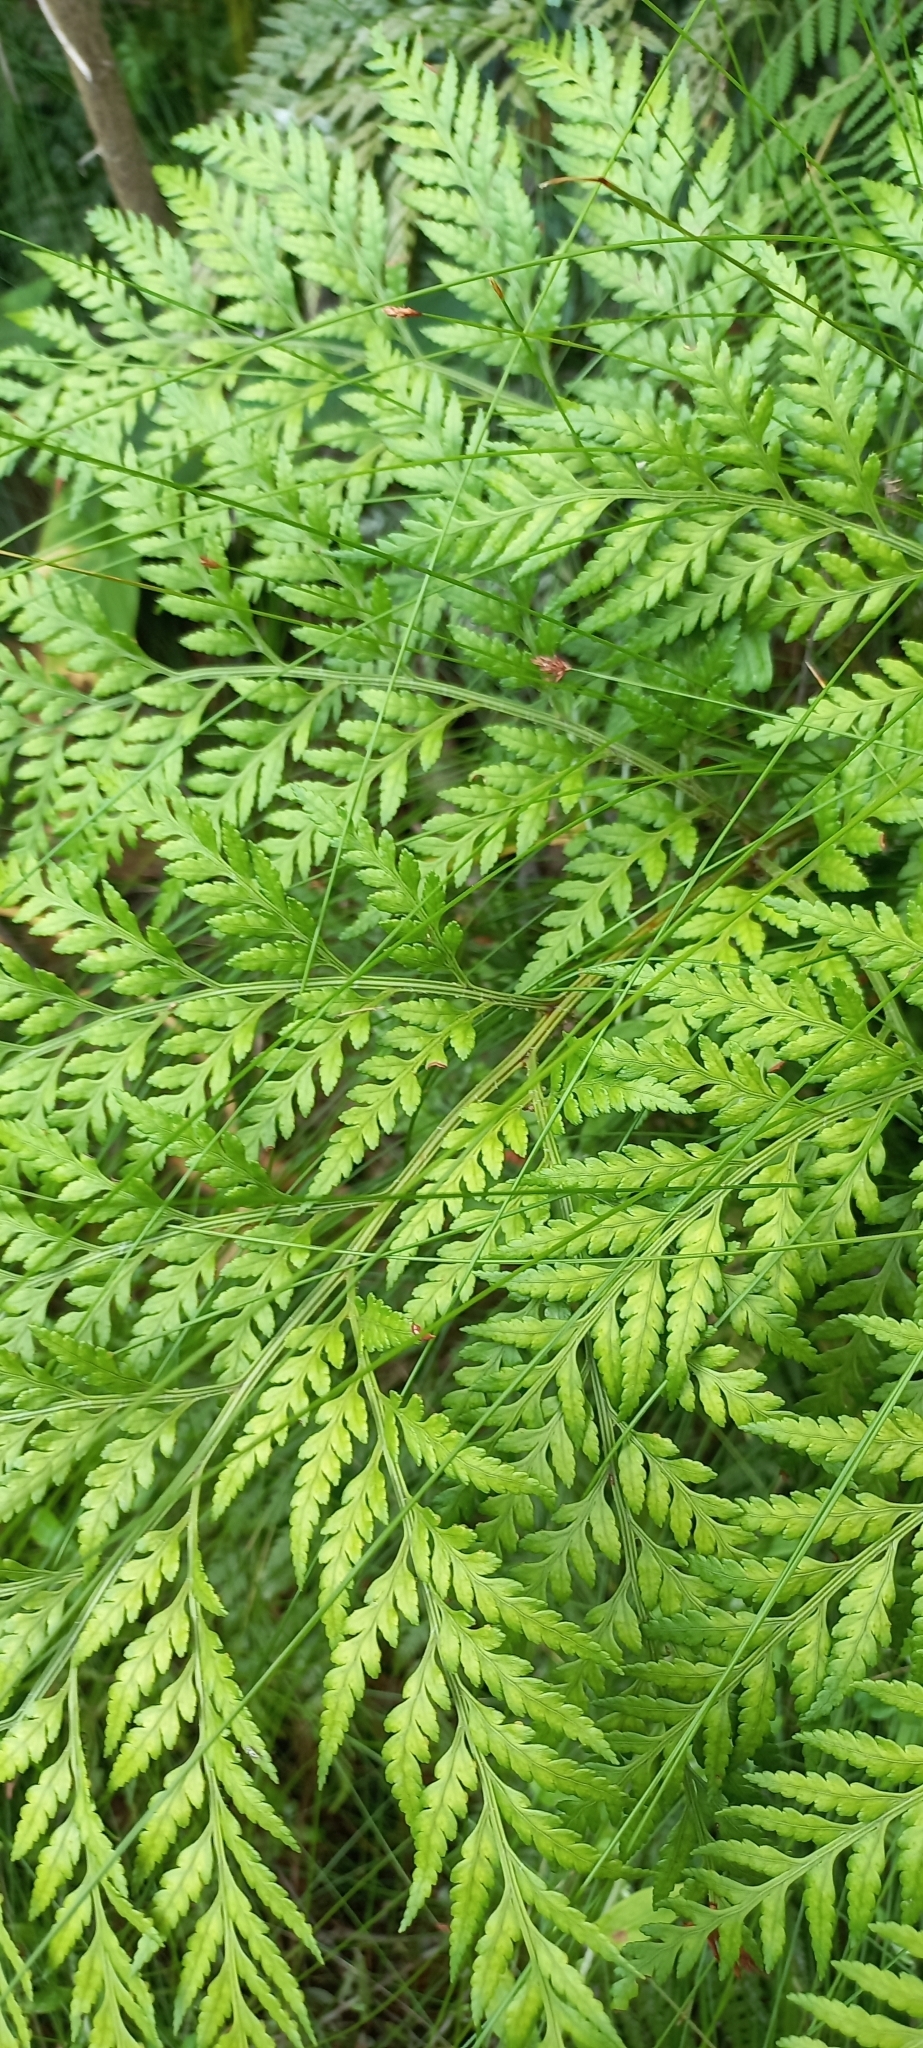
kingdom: Plantae
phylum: Tracheophyta
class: Polypodiopsida
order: Polypodiales
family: Dryopteridaceae
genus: Rumohra
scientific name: Rumohra adiantiformis
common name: Leather fern
